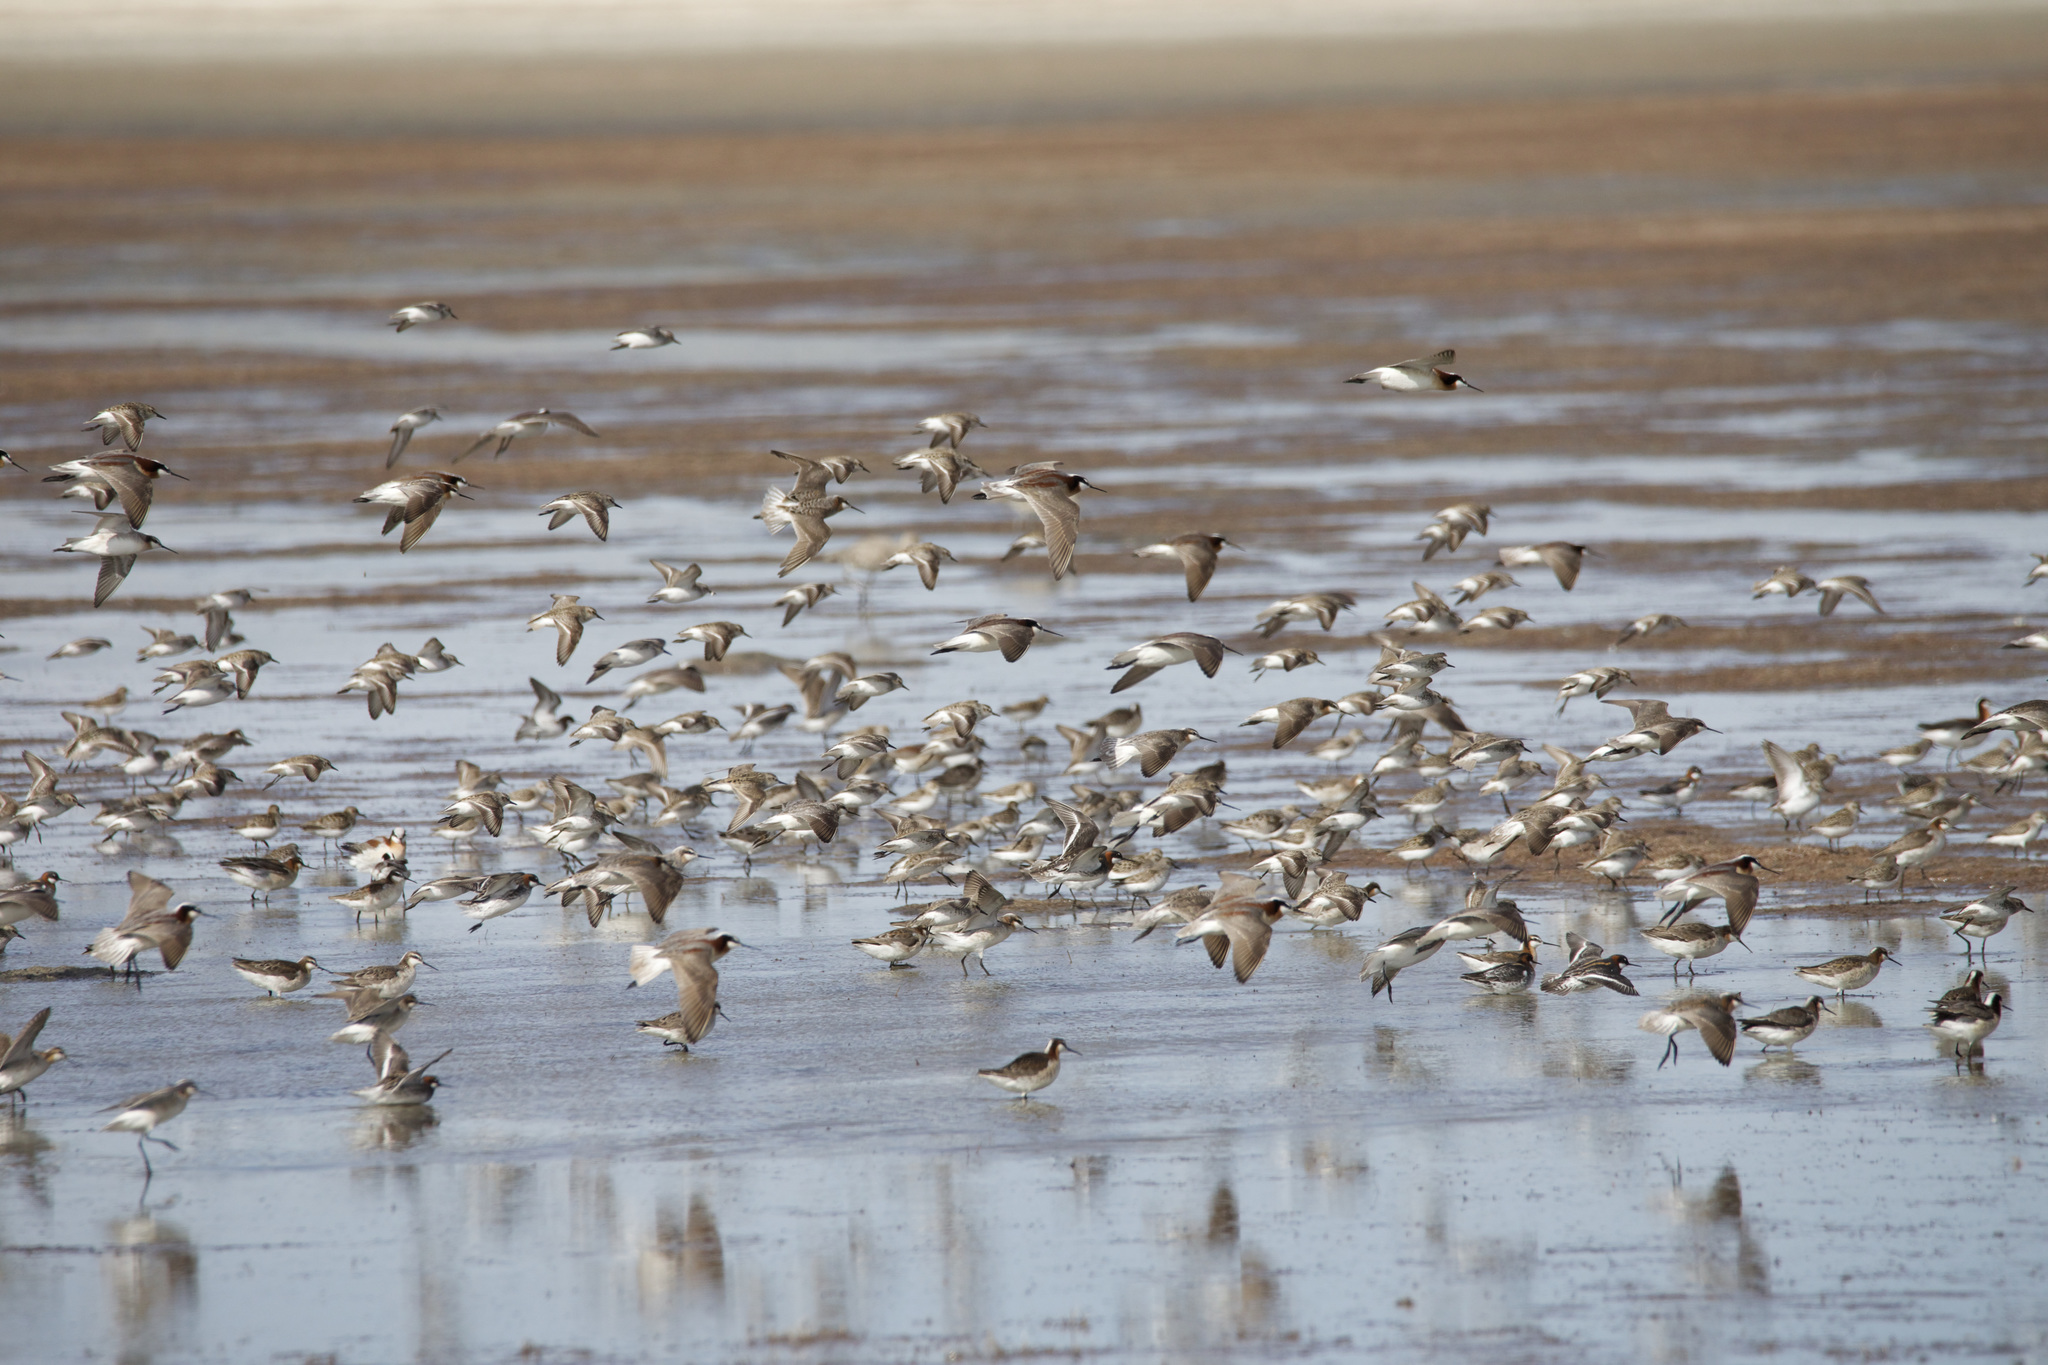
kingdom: Animalia
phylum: Chordata
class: Aves
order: Charadriiformes
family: Scolopacidae
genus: Phalaropus
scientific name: Phalaropus tricolor
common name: Wilson's phalarope
